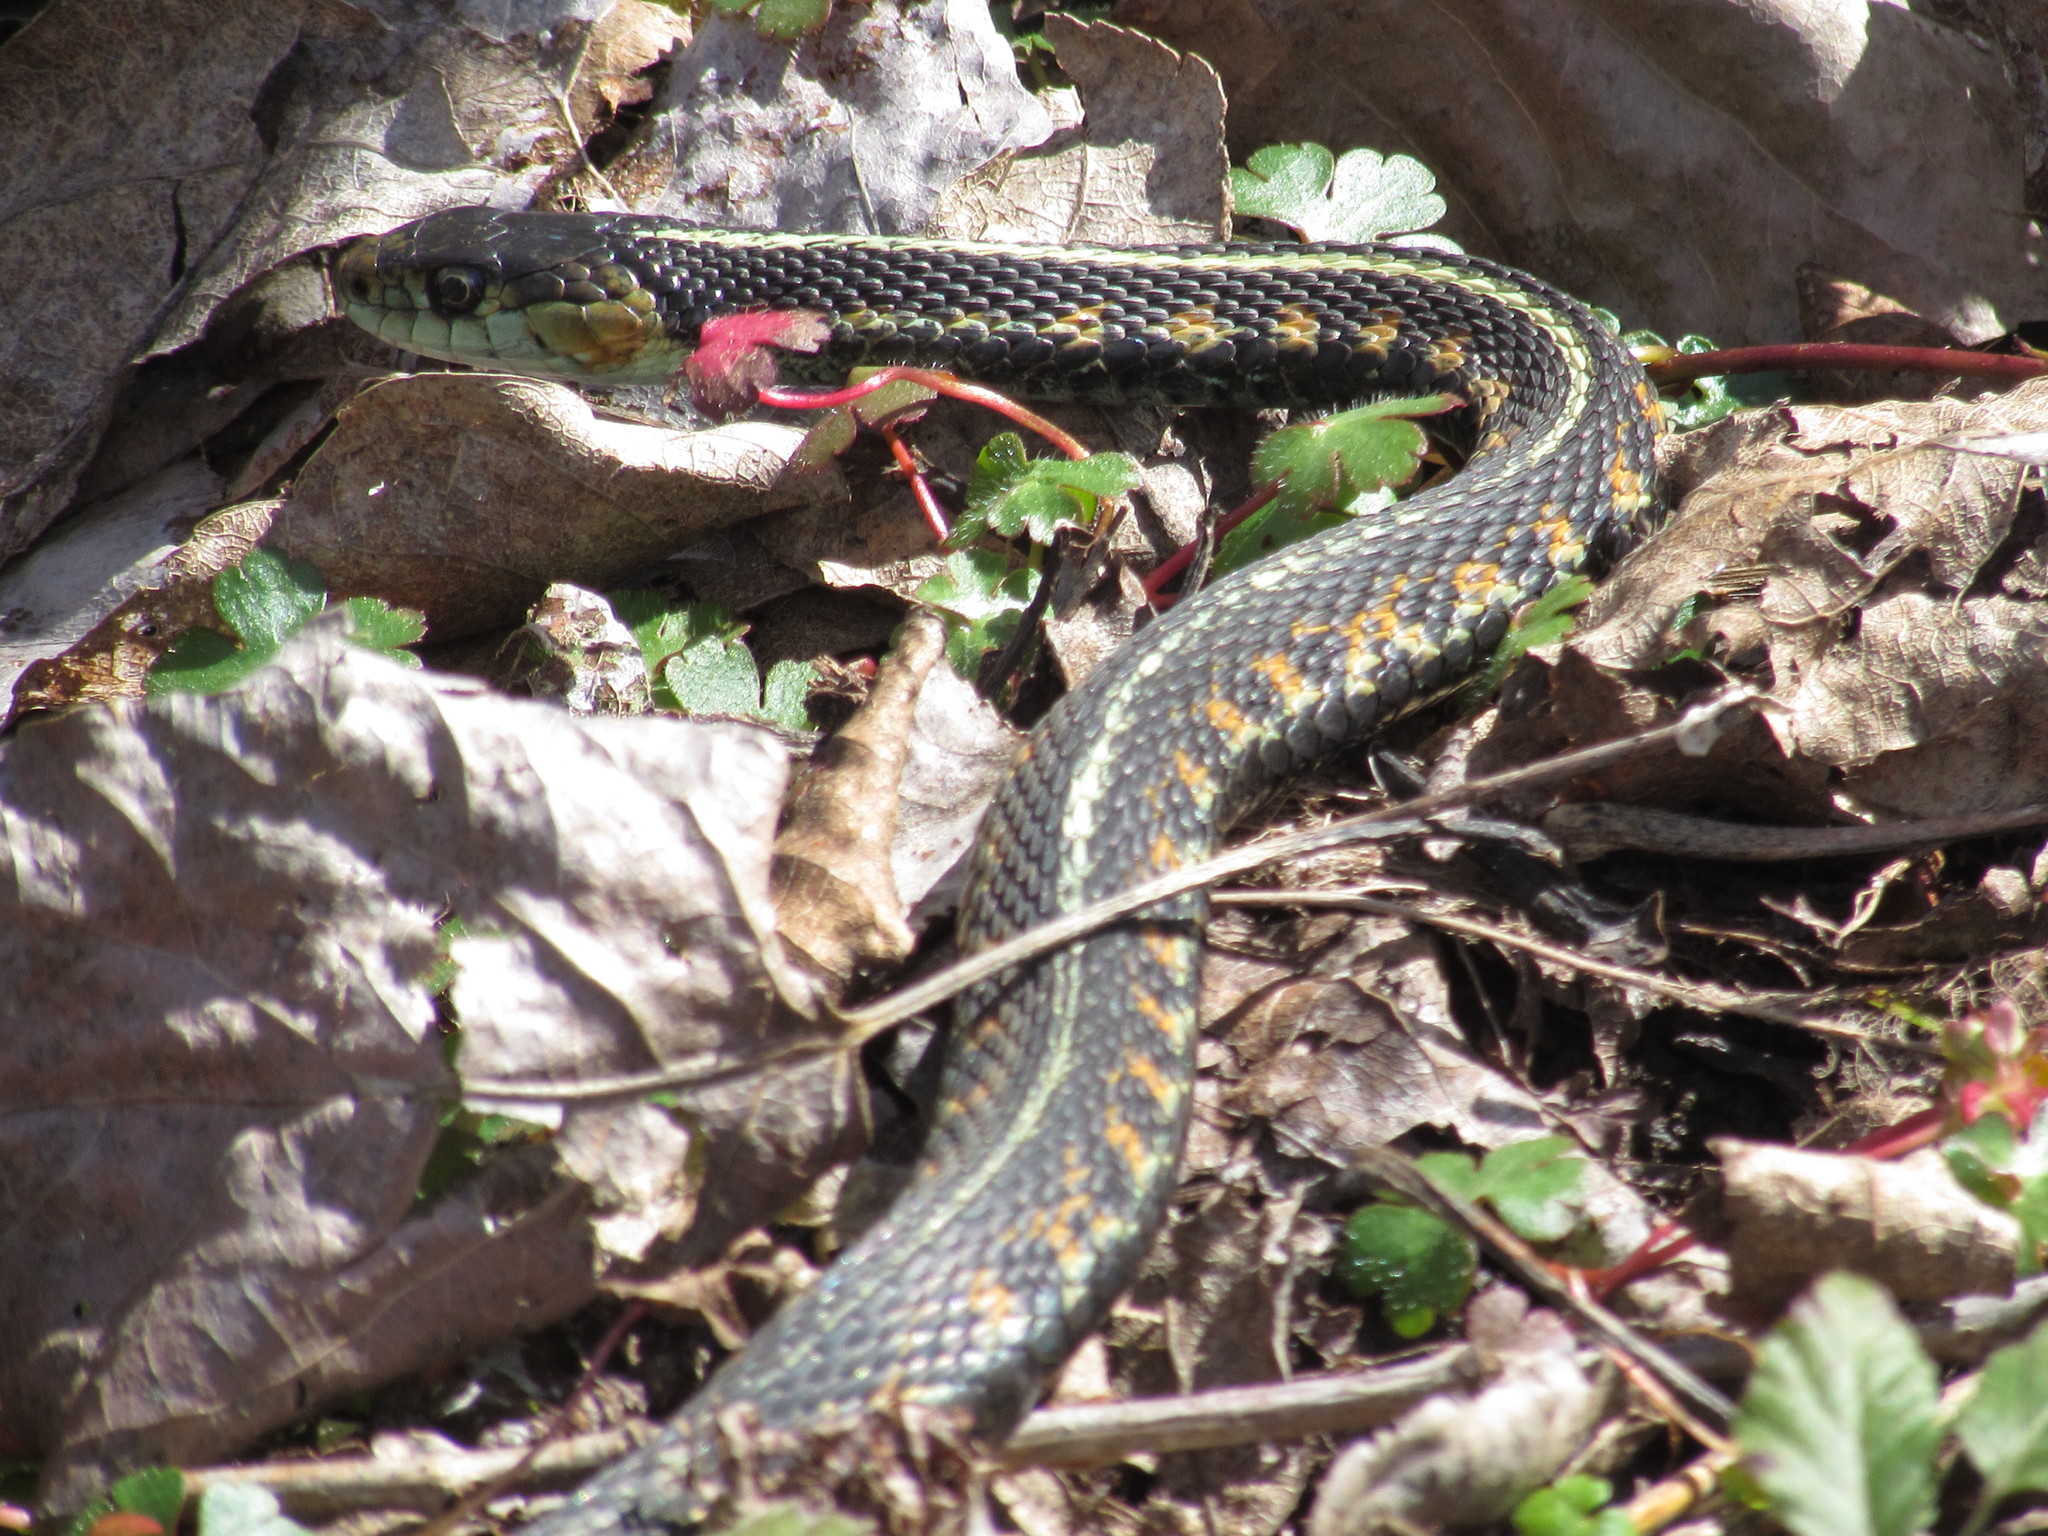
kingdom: Animalia
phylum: Chordata
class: Squamata
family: Colubridae
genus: Thamnophis
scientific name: Thamnophis sirtalis
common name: Common garter snake
